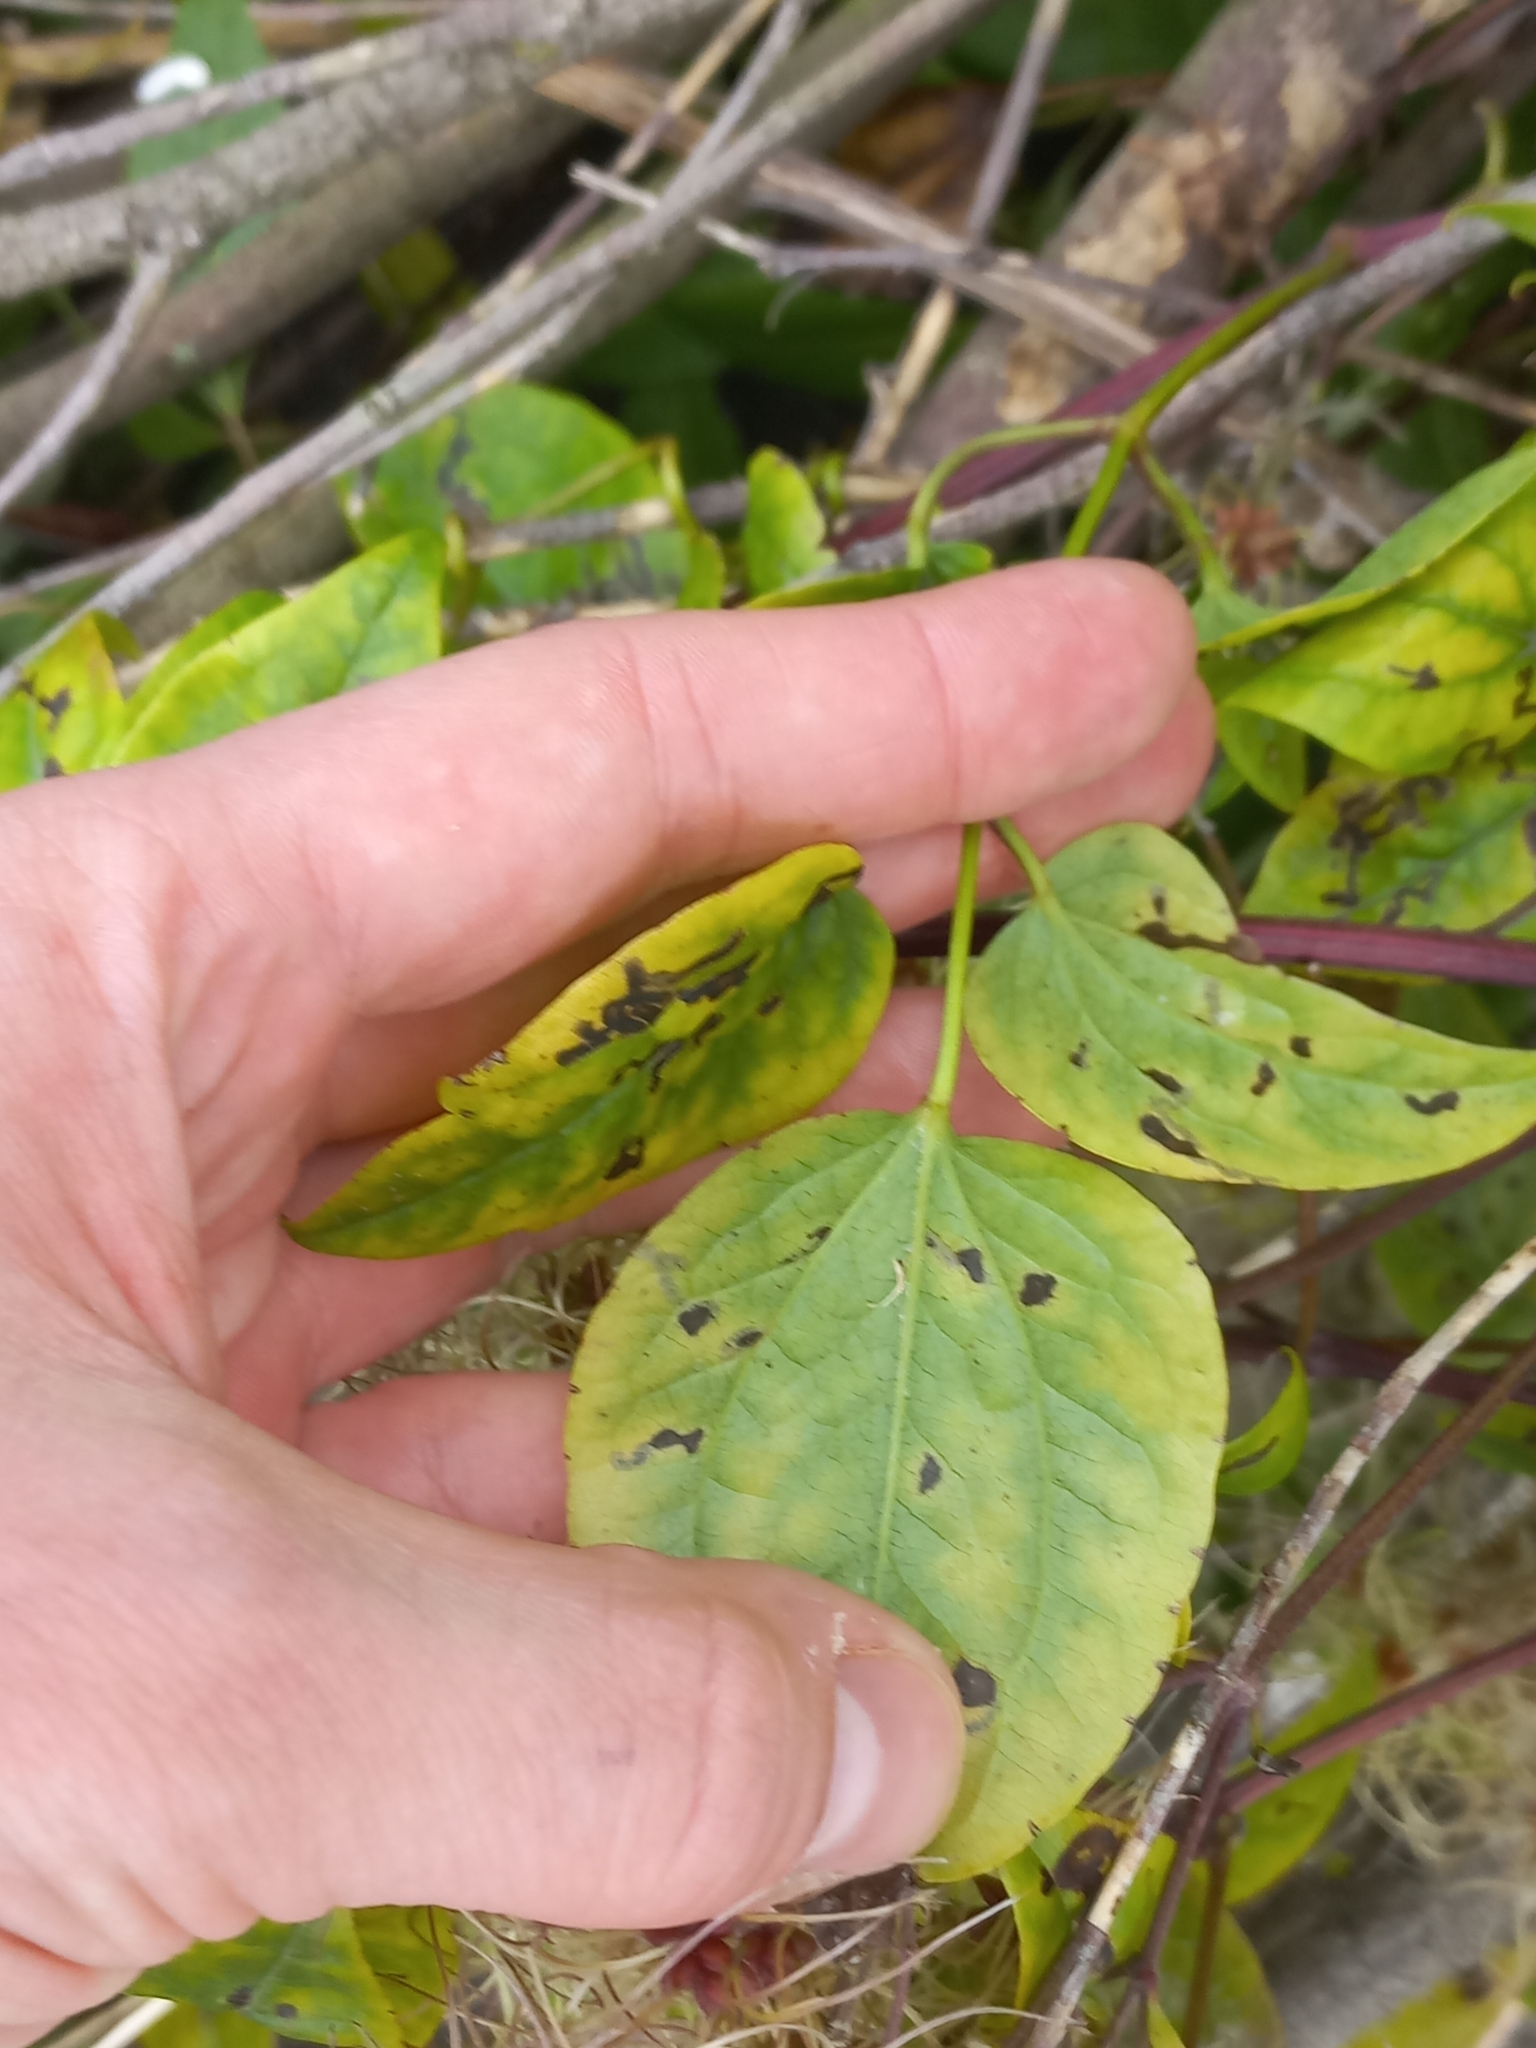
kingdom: Plantae
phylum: Tracheophyta
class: Magnoliopsida
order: Ranunculales
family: Ranunculaceae
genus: Clematis
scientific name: Clematis vitalba
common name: Evergreen clematis
